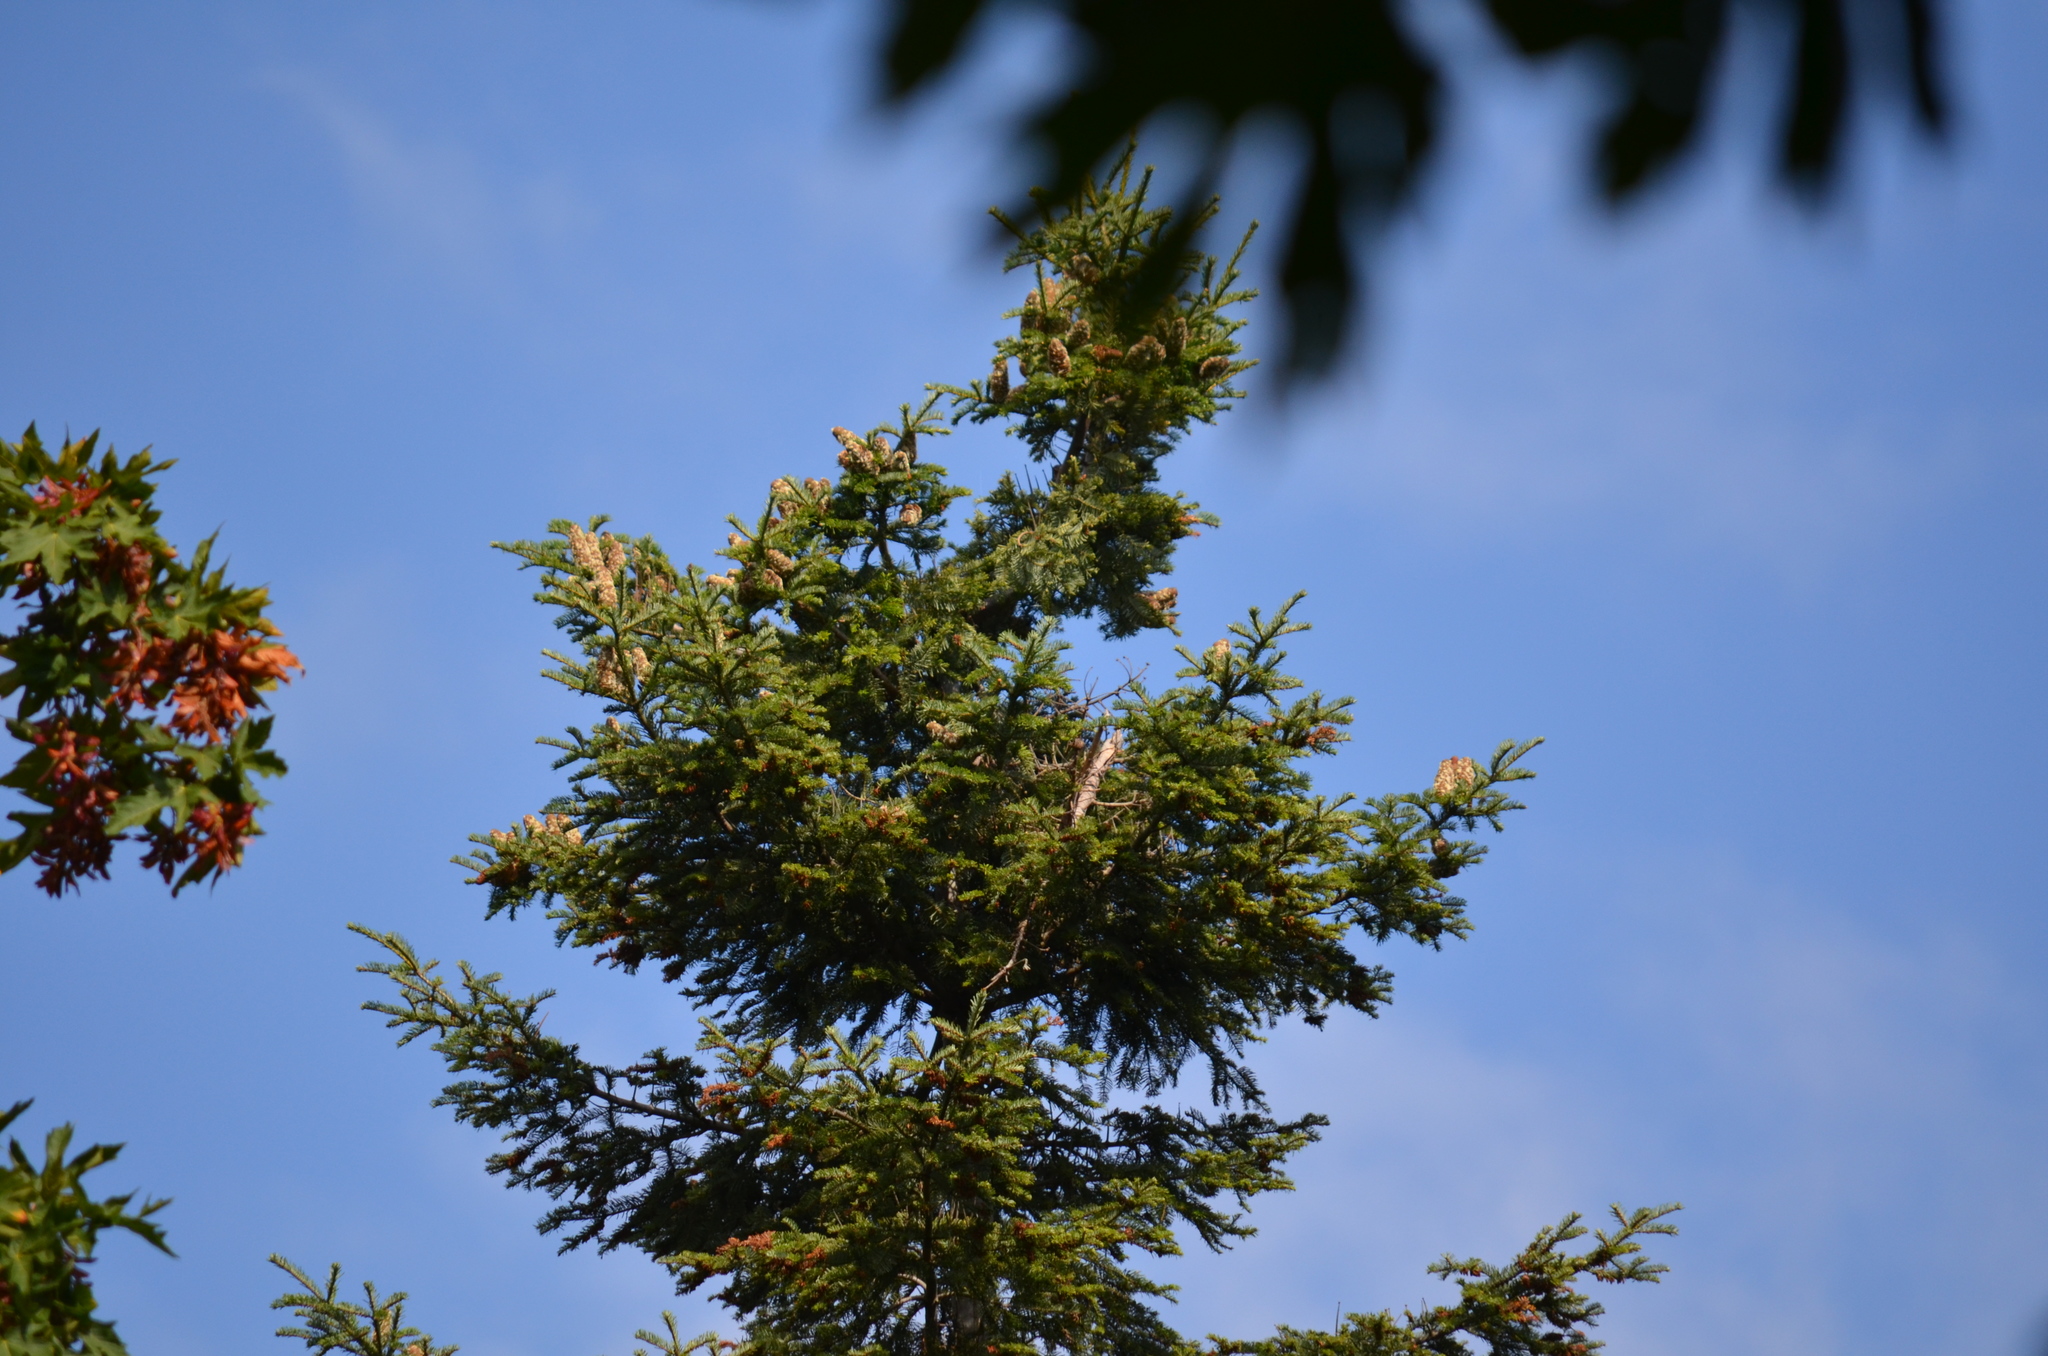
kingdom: Plantae
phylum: Tracheophyta
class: Pinopsida
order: Pinales
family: Pinaceae
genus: Pseudotsuga
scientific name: Pseudotsuga menziesii
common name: Douglas fir
